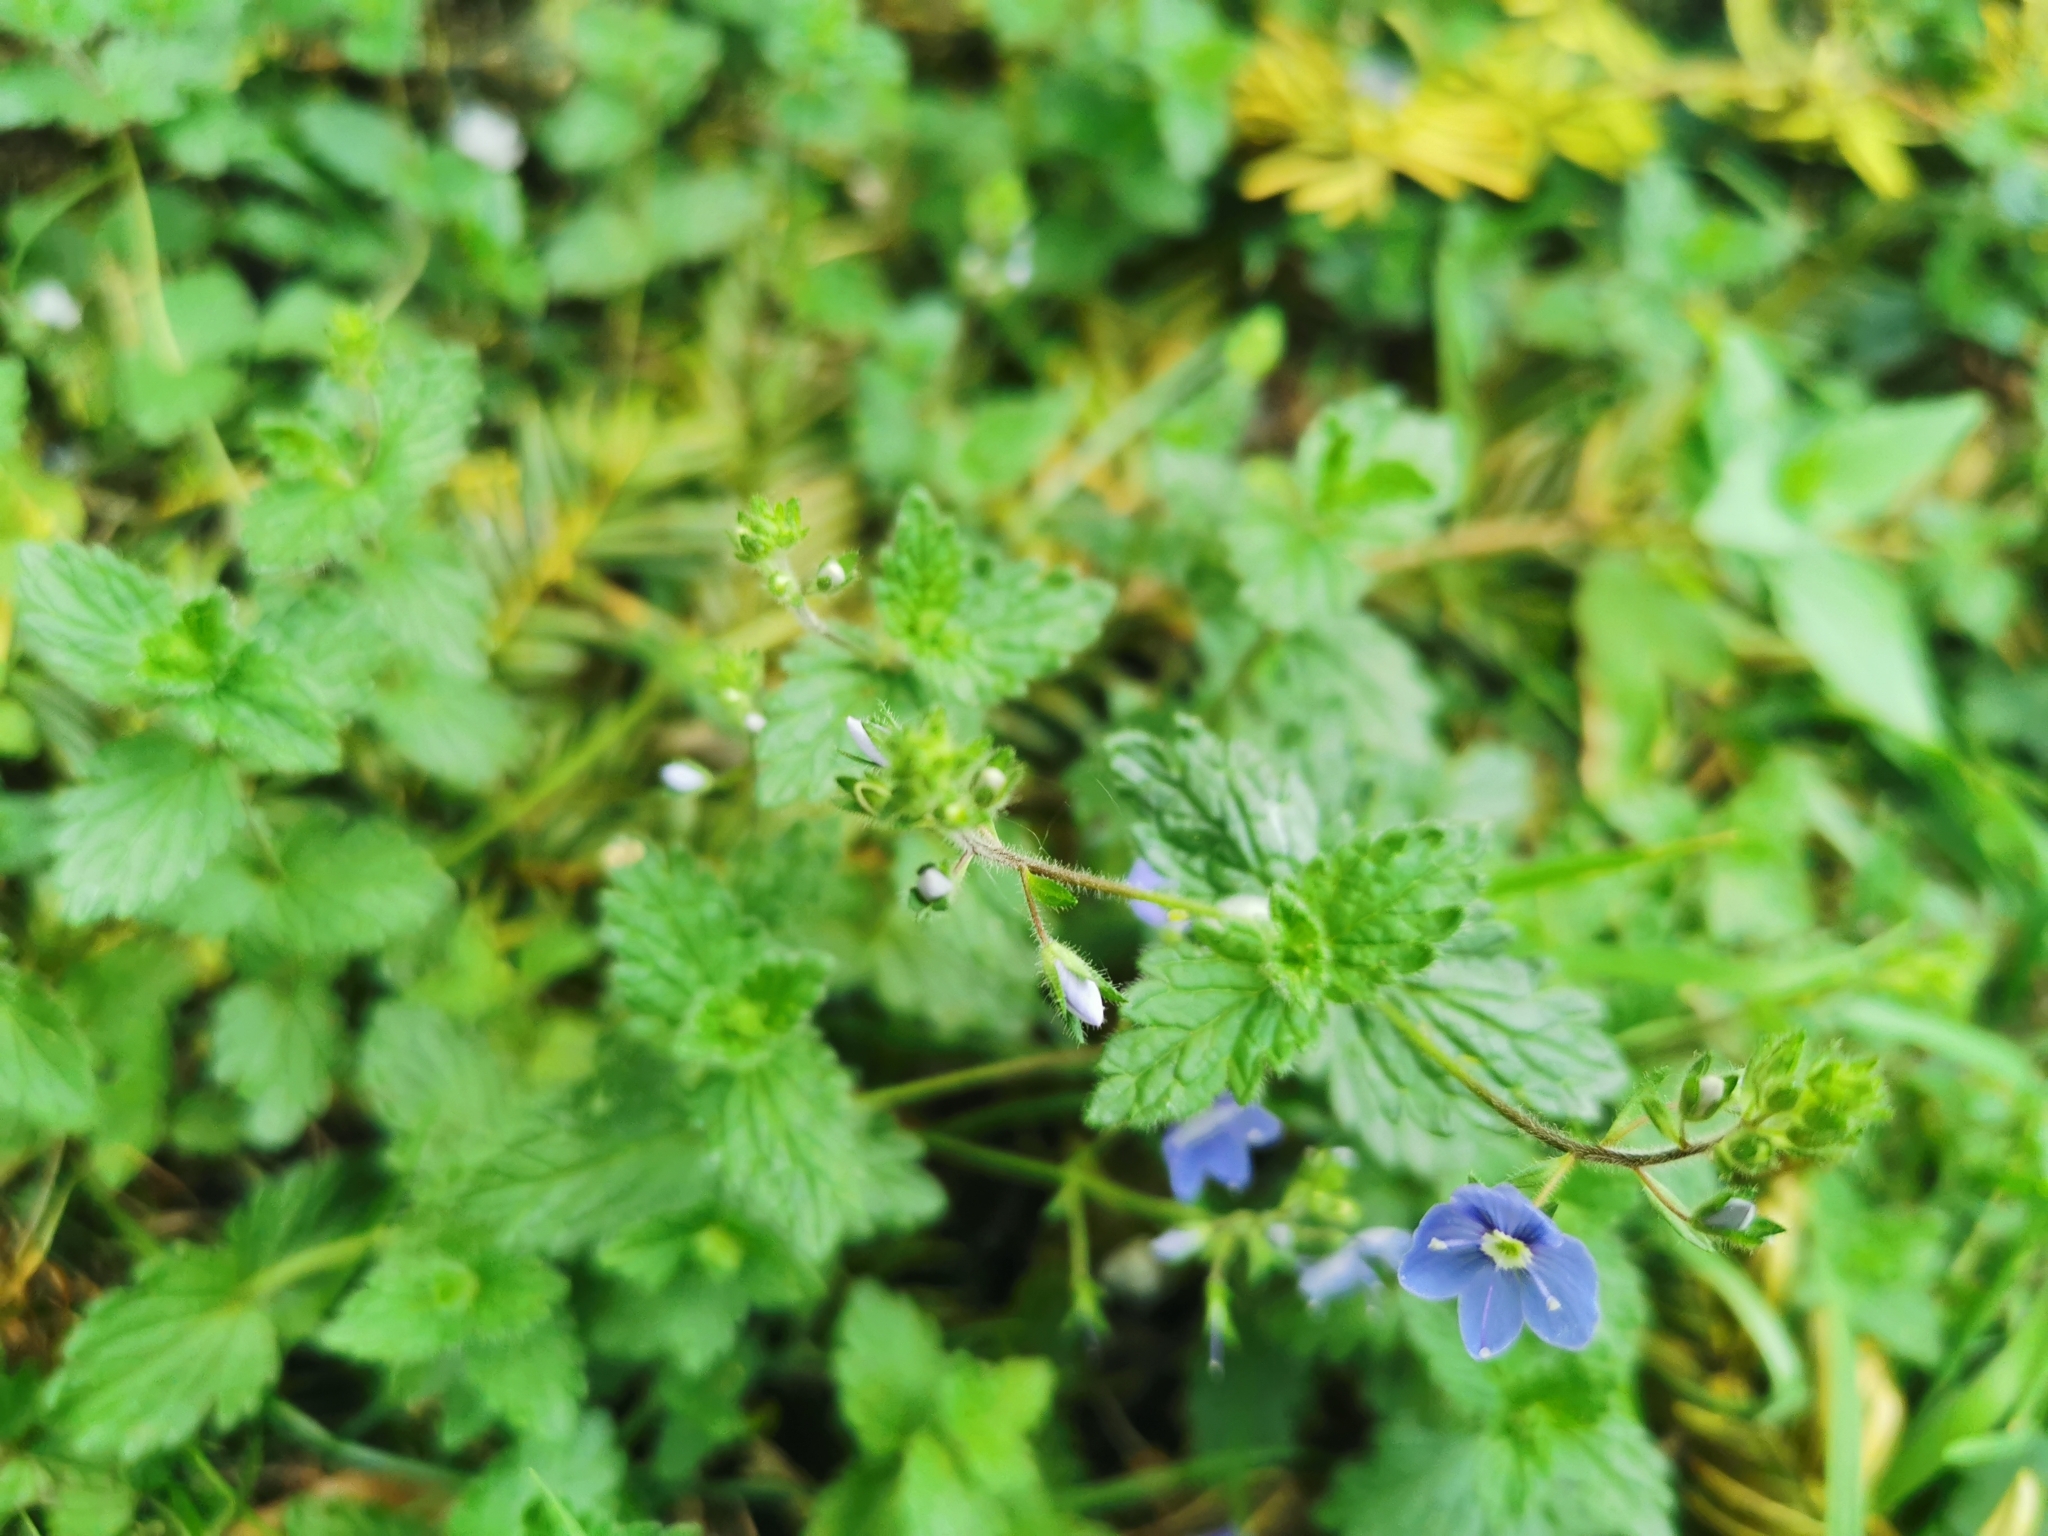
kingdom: Plantae
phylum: Tracheophyta
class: Magnoliopsida
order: Lamiales
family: Plantaginaceae
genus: Veronica
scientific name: Veronica chamaedrys
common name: Germander speedwell
